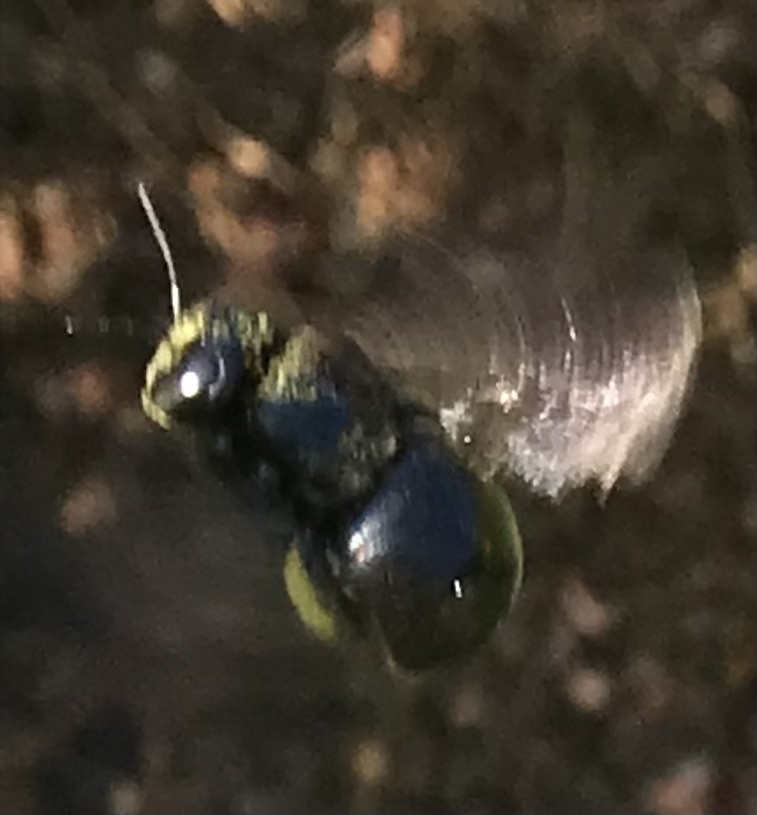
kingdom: Animalia
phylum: Arthropoda
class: Insecta
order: Hymenoptera
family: Apidae
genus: Xylocopa
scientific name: Xylocopa micans
